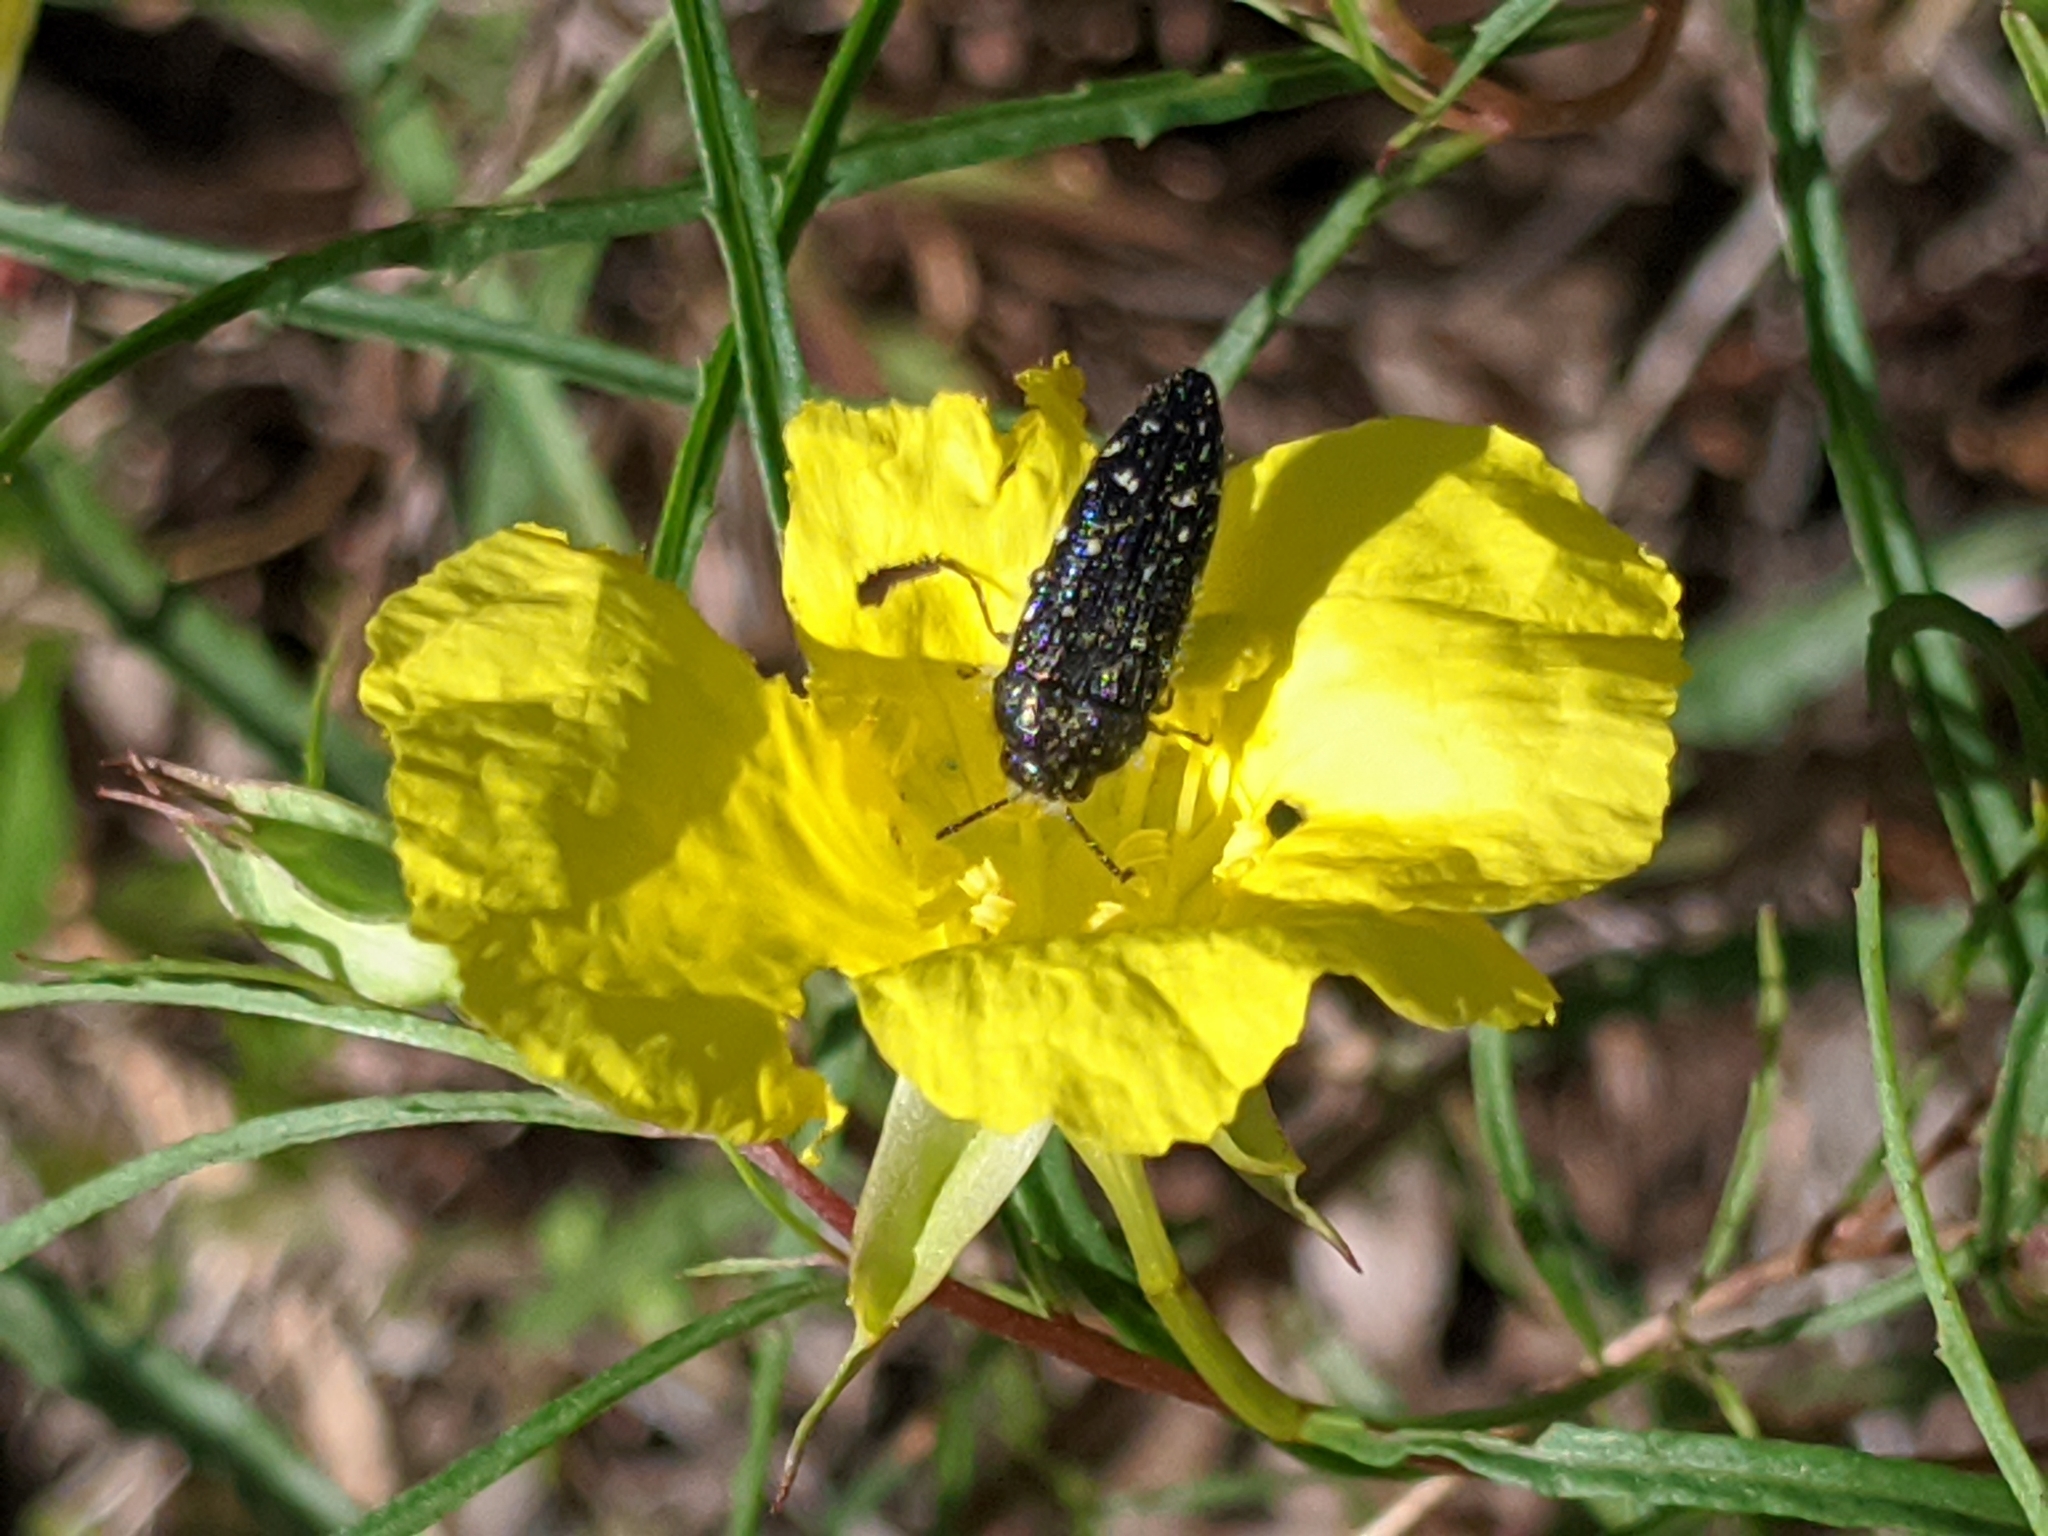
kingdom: Animalia
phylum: Arthropoda
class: Insecta
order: Coleoptera
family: Buprestidae
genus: Acmaeodera
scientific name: Acmaeodera ornatoides
